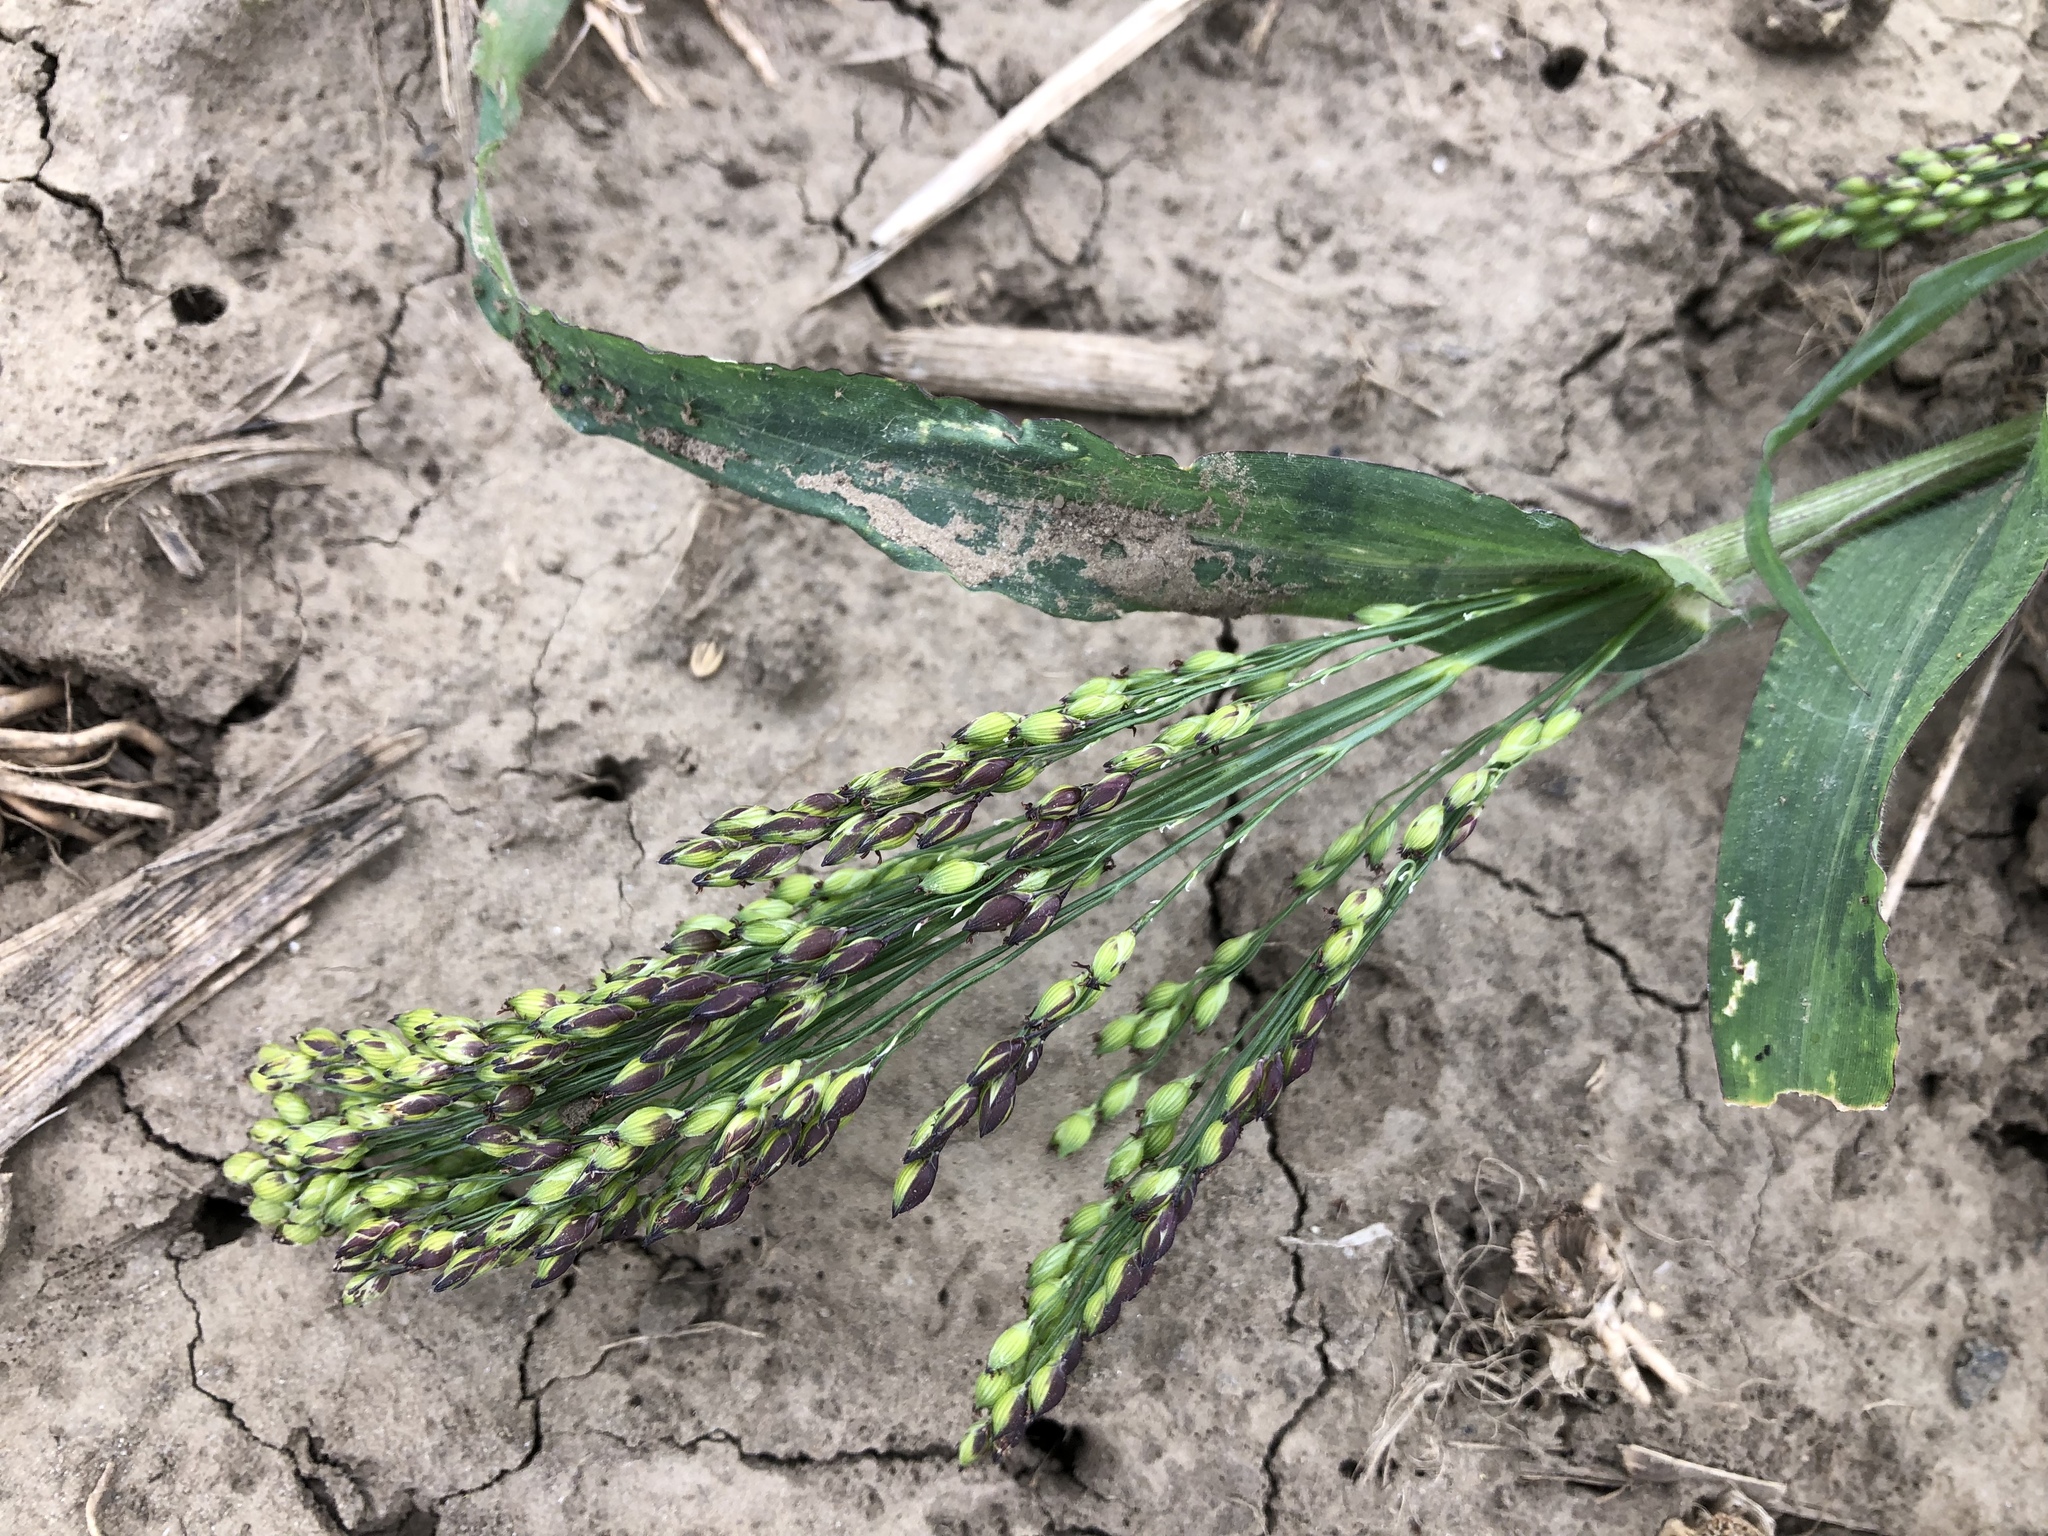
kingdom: Plantae
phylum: Tracheophyta
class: Liliopsida
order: Poales
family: Poaceae
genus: Panicum
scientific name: Panicum miliaceum
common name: Common millet
